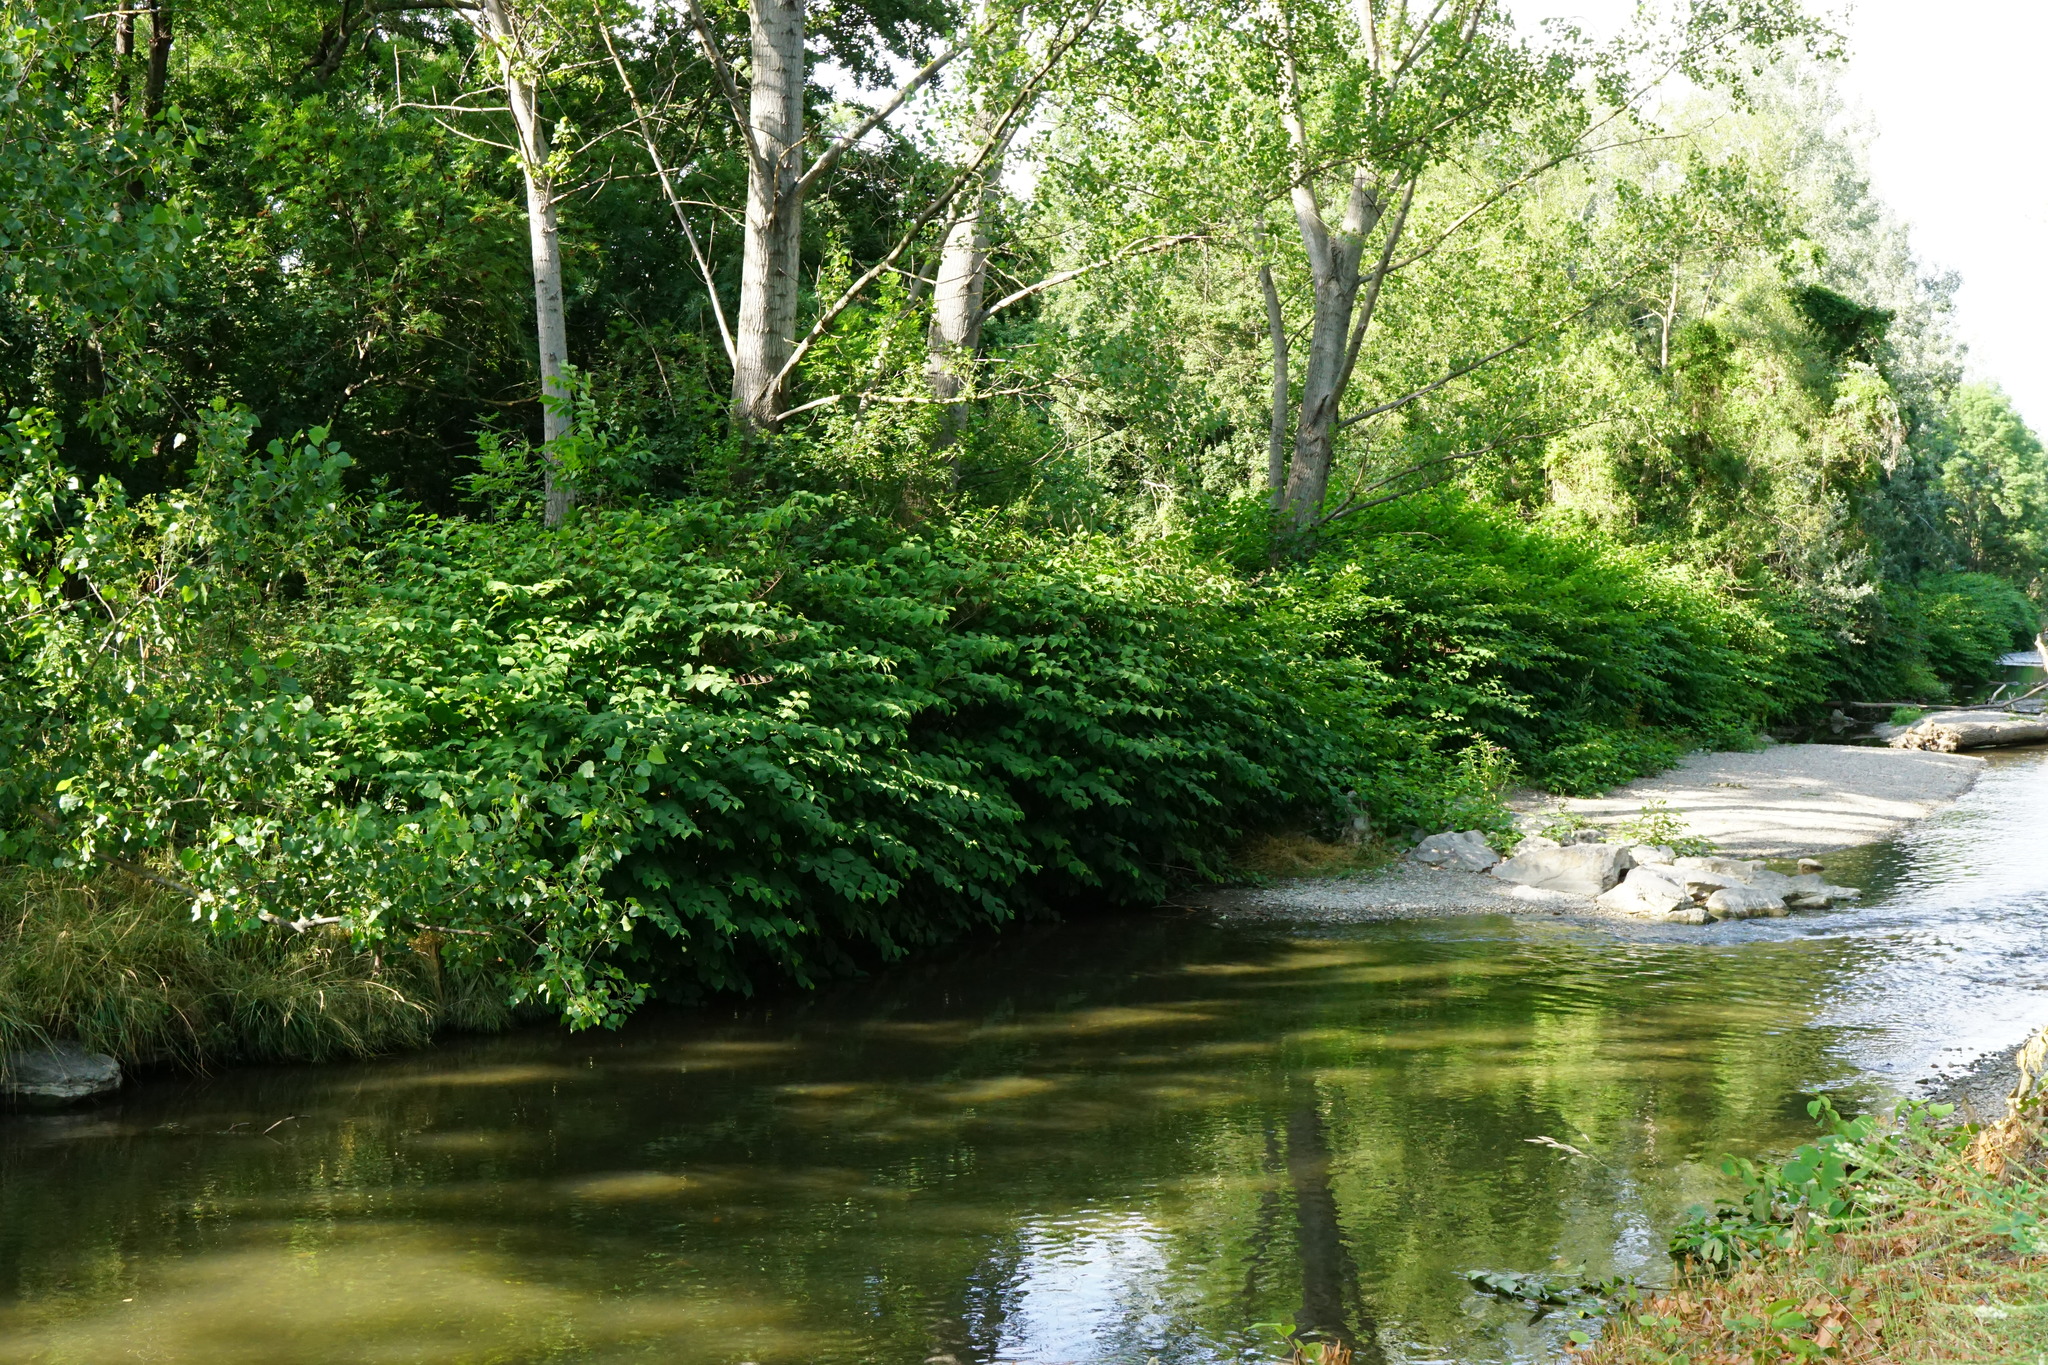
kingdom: Plantae
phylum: Tracheophyta
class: Magnoliopsida
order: Caryophyllales
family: Polygonaceae
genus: Reynoutria
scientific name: Reynoutria bohemica
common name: Bohemian knotweed
